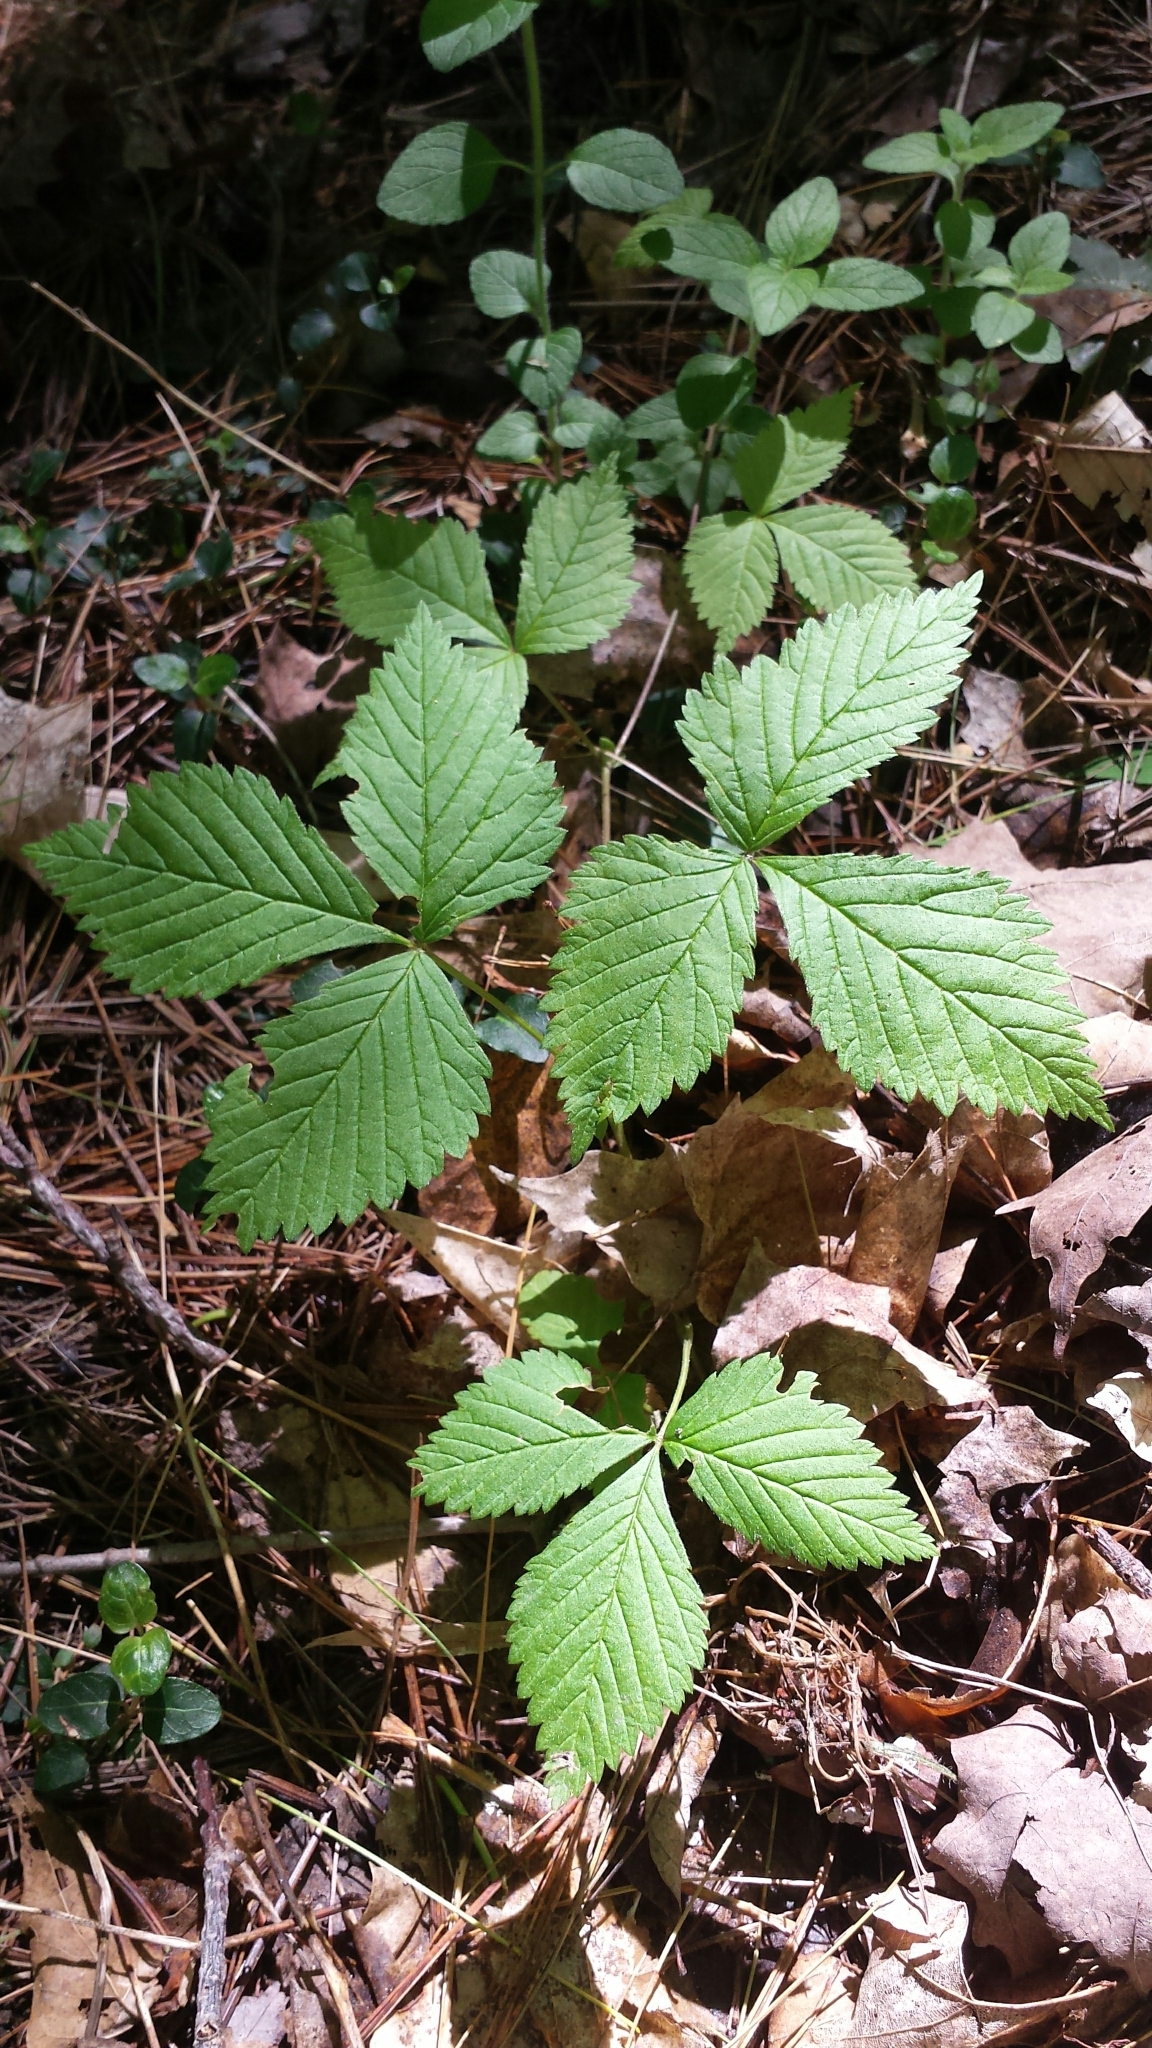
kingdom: Plantae
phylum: Tracheophyta
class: Magnoliopsida
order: Rosales
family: Rosaceae
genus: Rubus
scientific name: Rubus pubescens
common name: Dwarf raspberry
